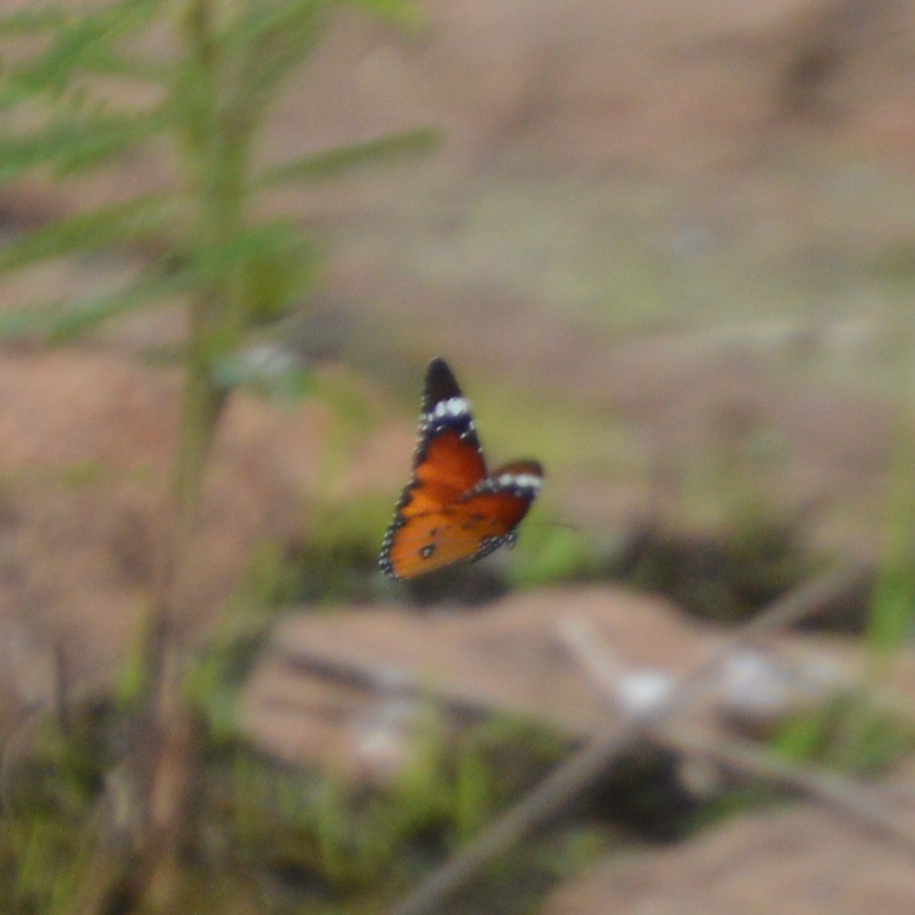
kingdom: Animalia
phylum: Arthropoda
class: Insecta
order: Lepidoptera
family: Nymphalidae
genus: Danaus
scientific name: Danaus chrysippus
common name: Plain tiger
